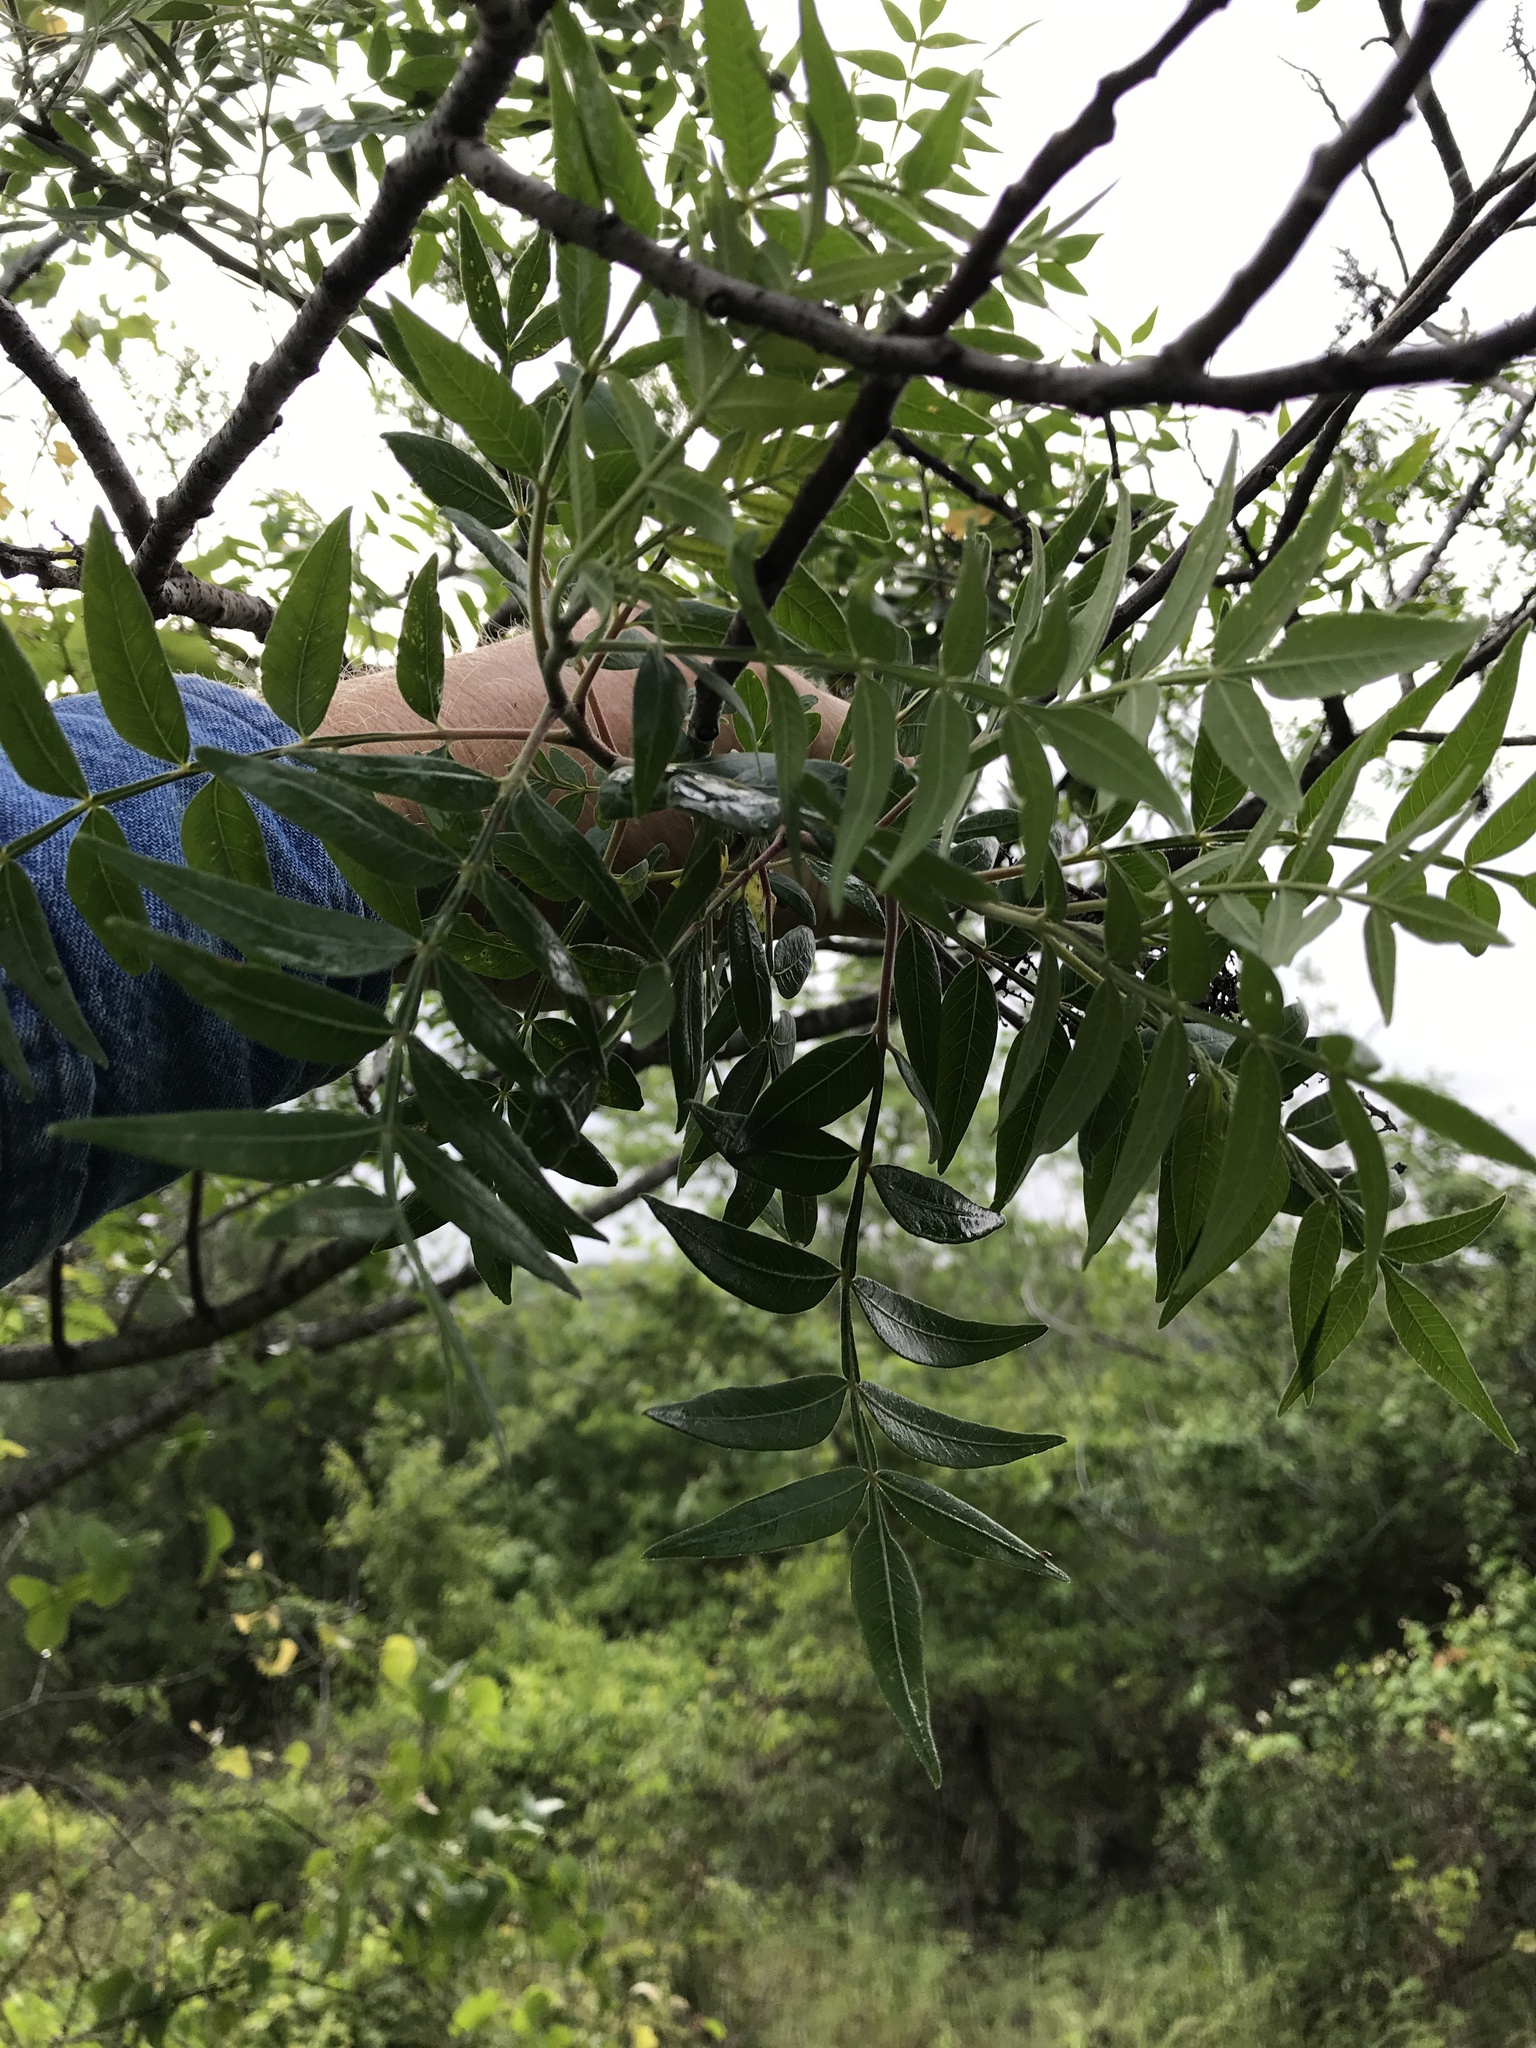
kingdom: Plantae
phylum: Tracheophyta
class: Magnoliopsida
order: Sapindales
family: Anacardiaceae
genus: Rhus
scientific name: Rhus lanceolata
